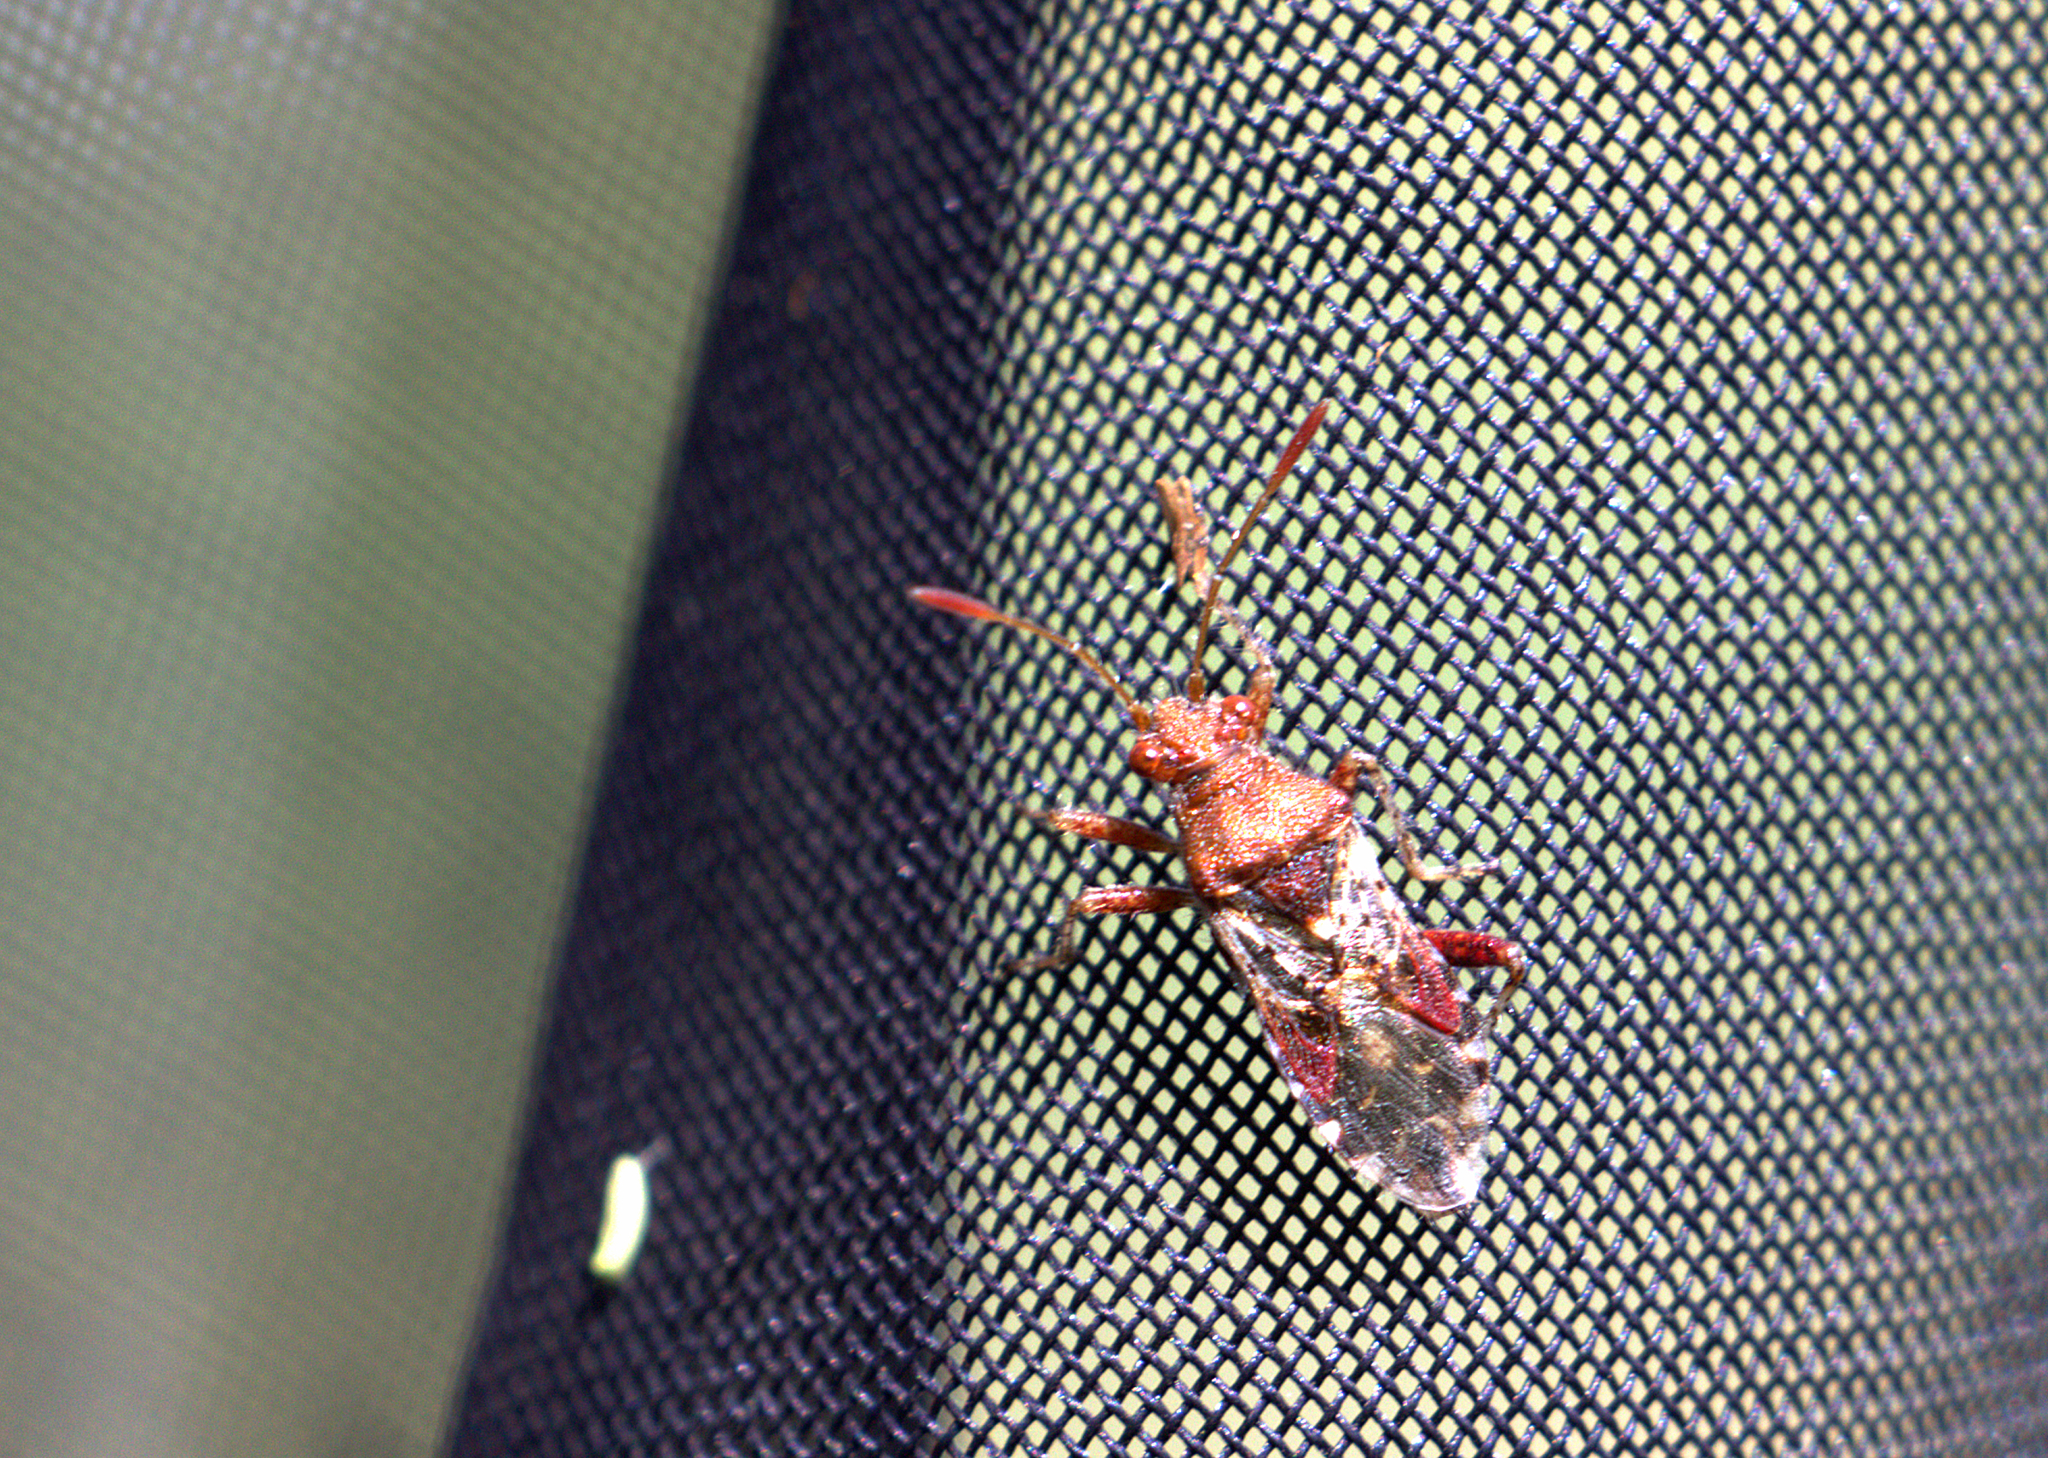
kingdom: Animalia
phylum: Arthropoda
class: Insecta
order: Hemiptera
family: Rhopalidae
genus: Rhopalus
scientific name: Rhopalus subrufus
